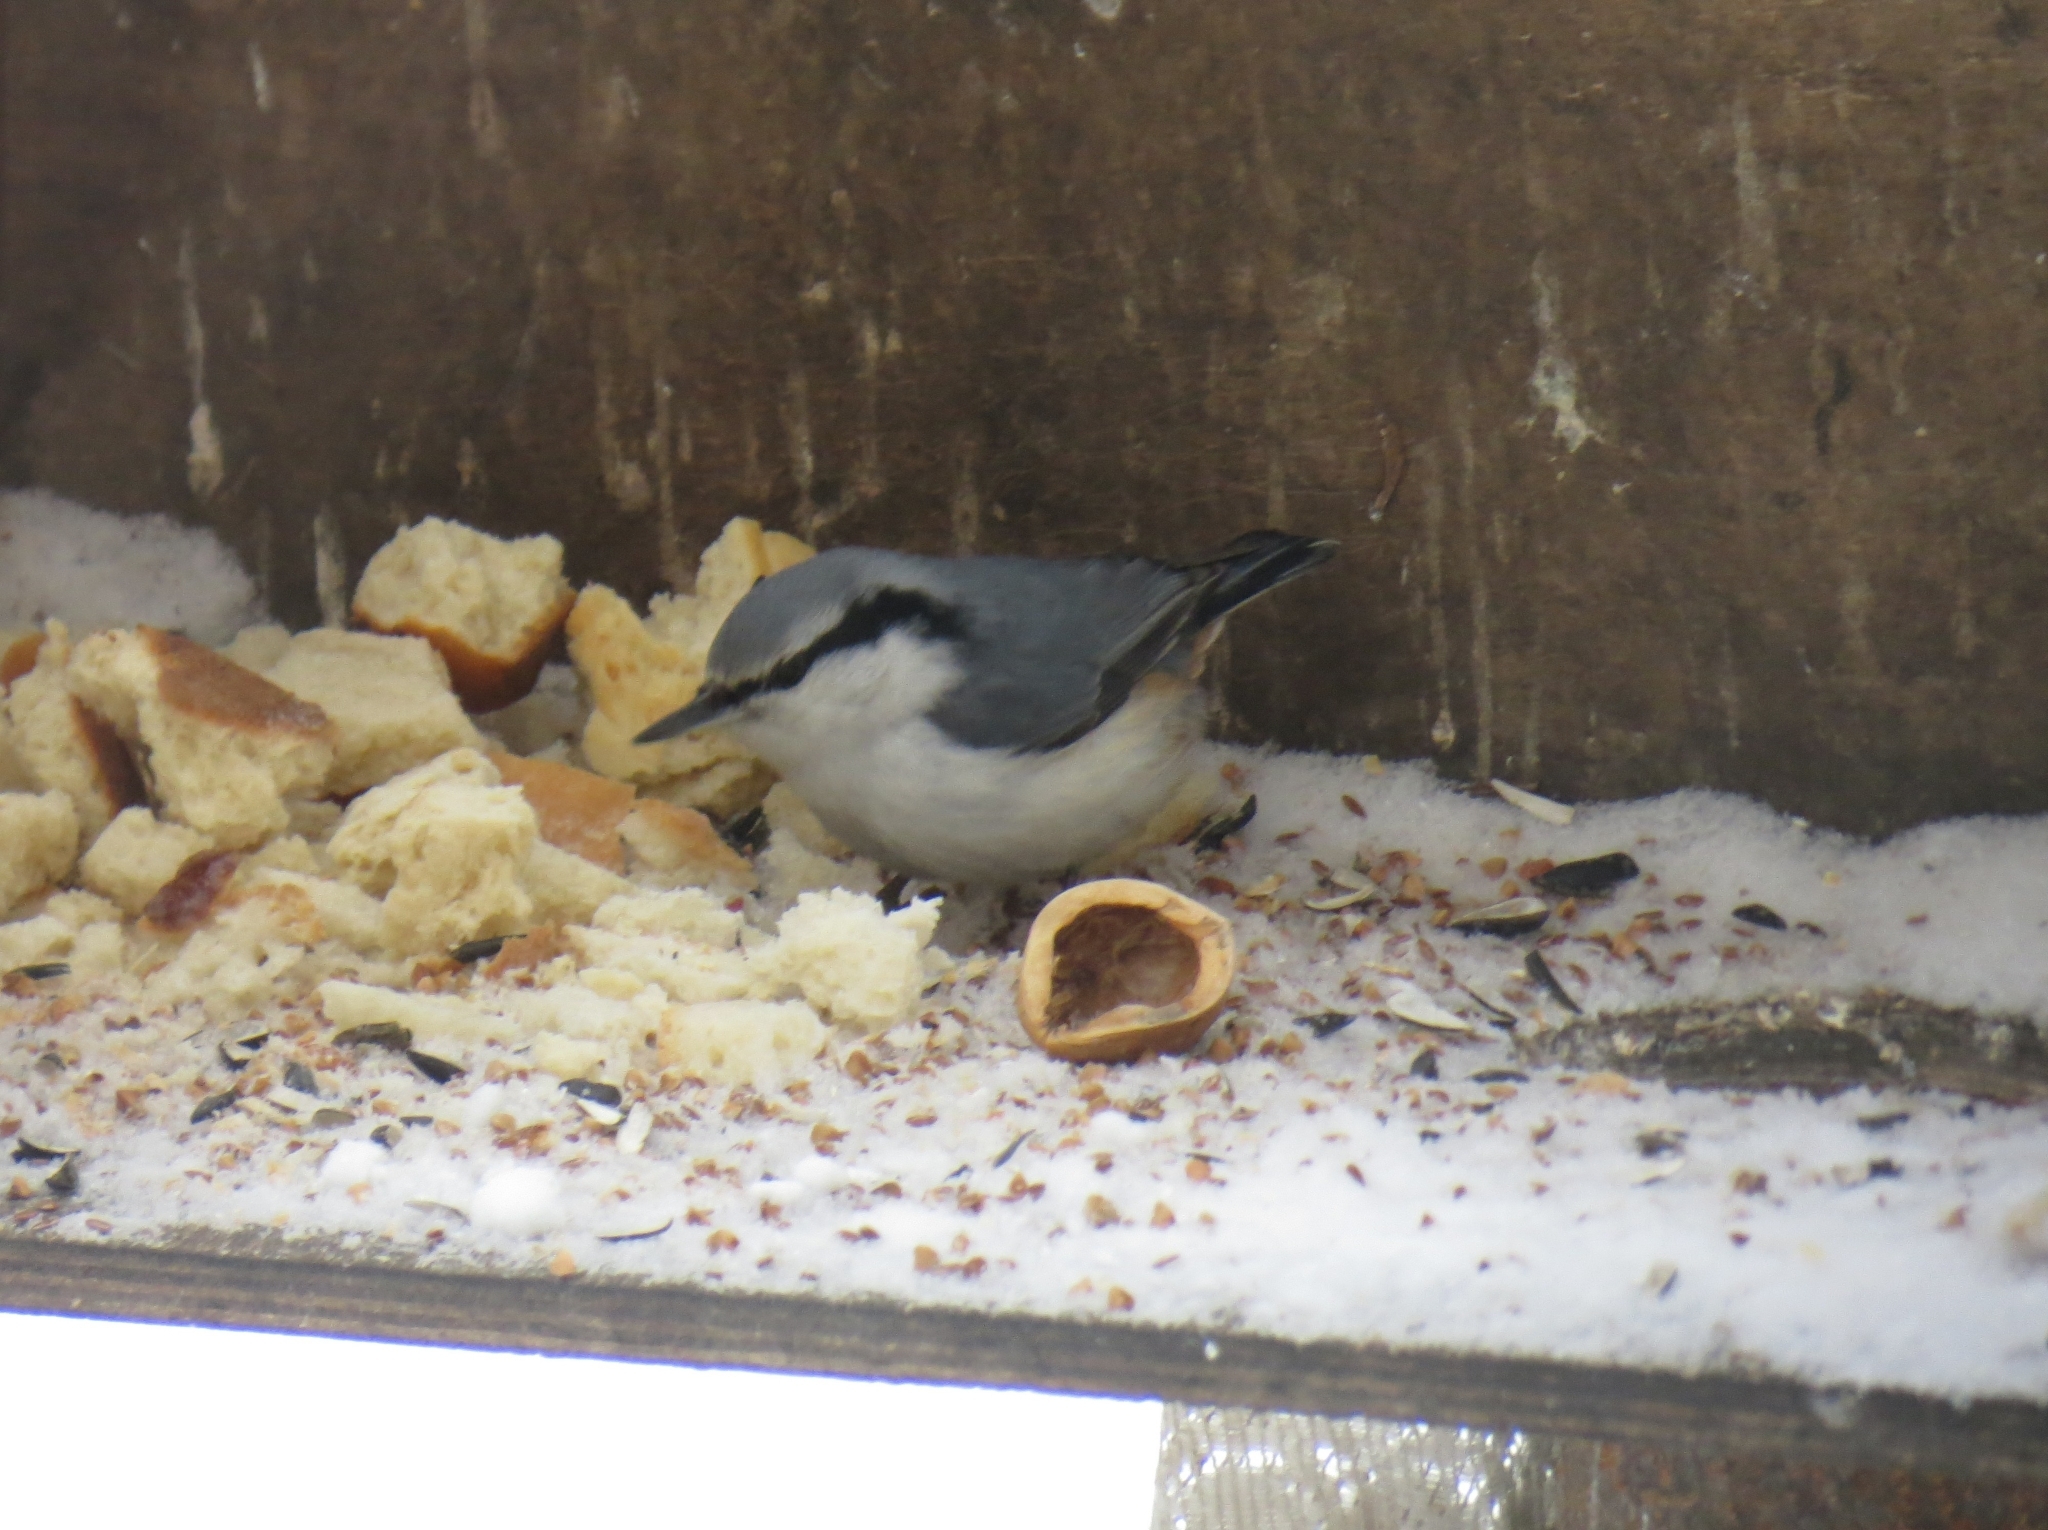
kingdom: Animalia
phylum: Chordata
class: Aves
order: Passeriformes
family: Sittidae
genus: Sitta
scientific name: Sitta europaea
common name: Eurasian nuthatch
